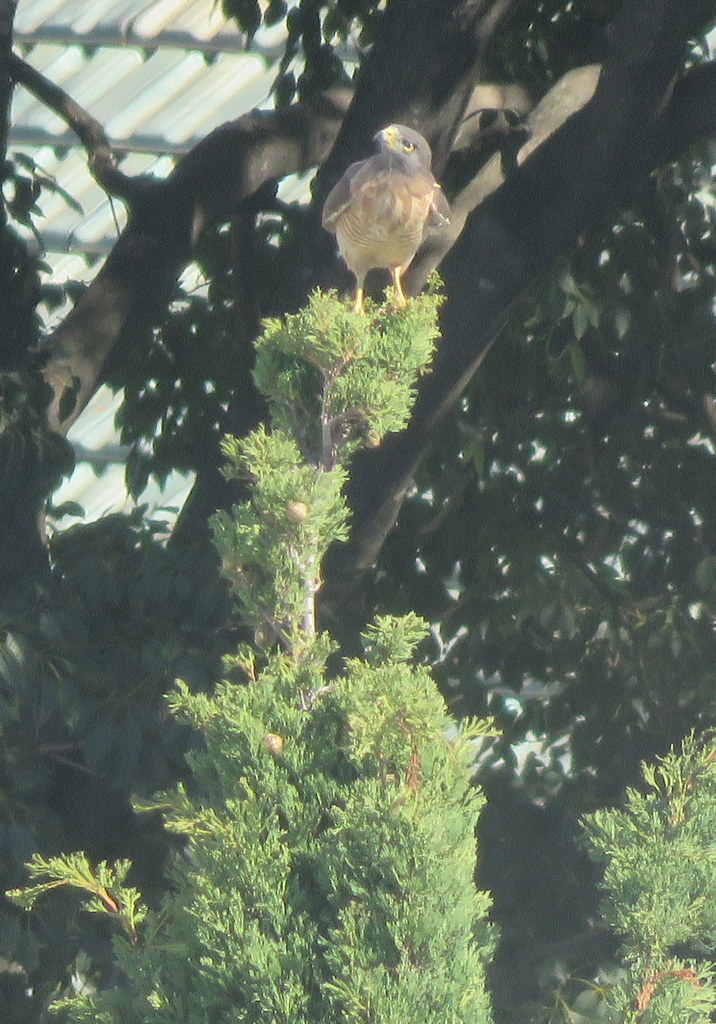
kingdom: Animalia
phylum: Chordata
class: Aves
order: Accipitriformes
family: Accipitridae
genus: Rupornis
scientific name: Rupornis magnirostris
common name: Roadside hawk
